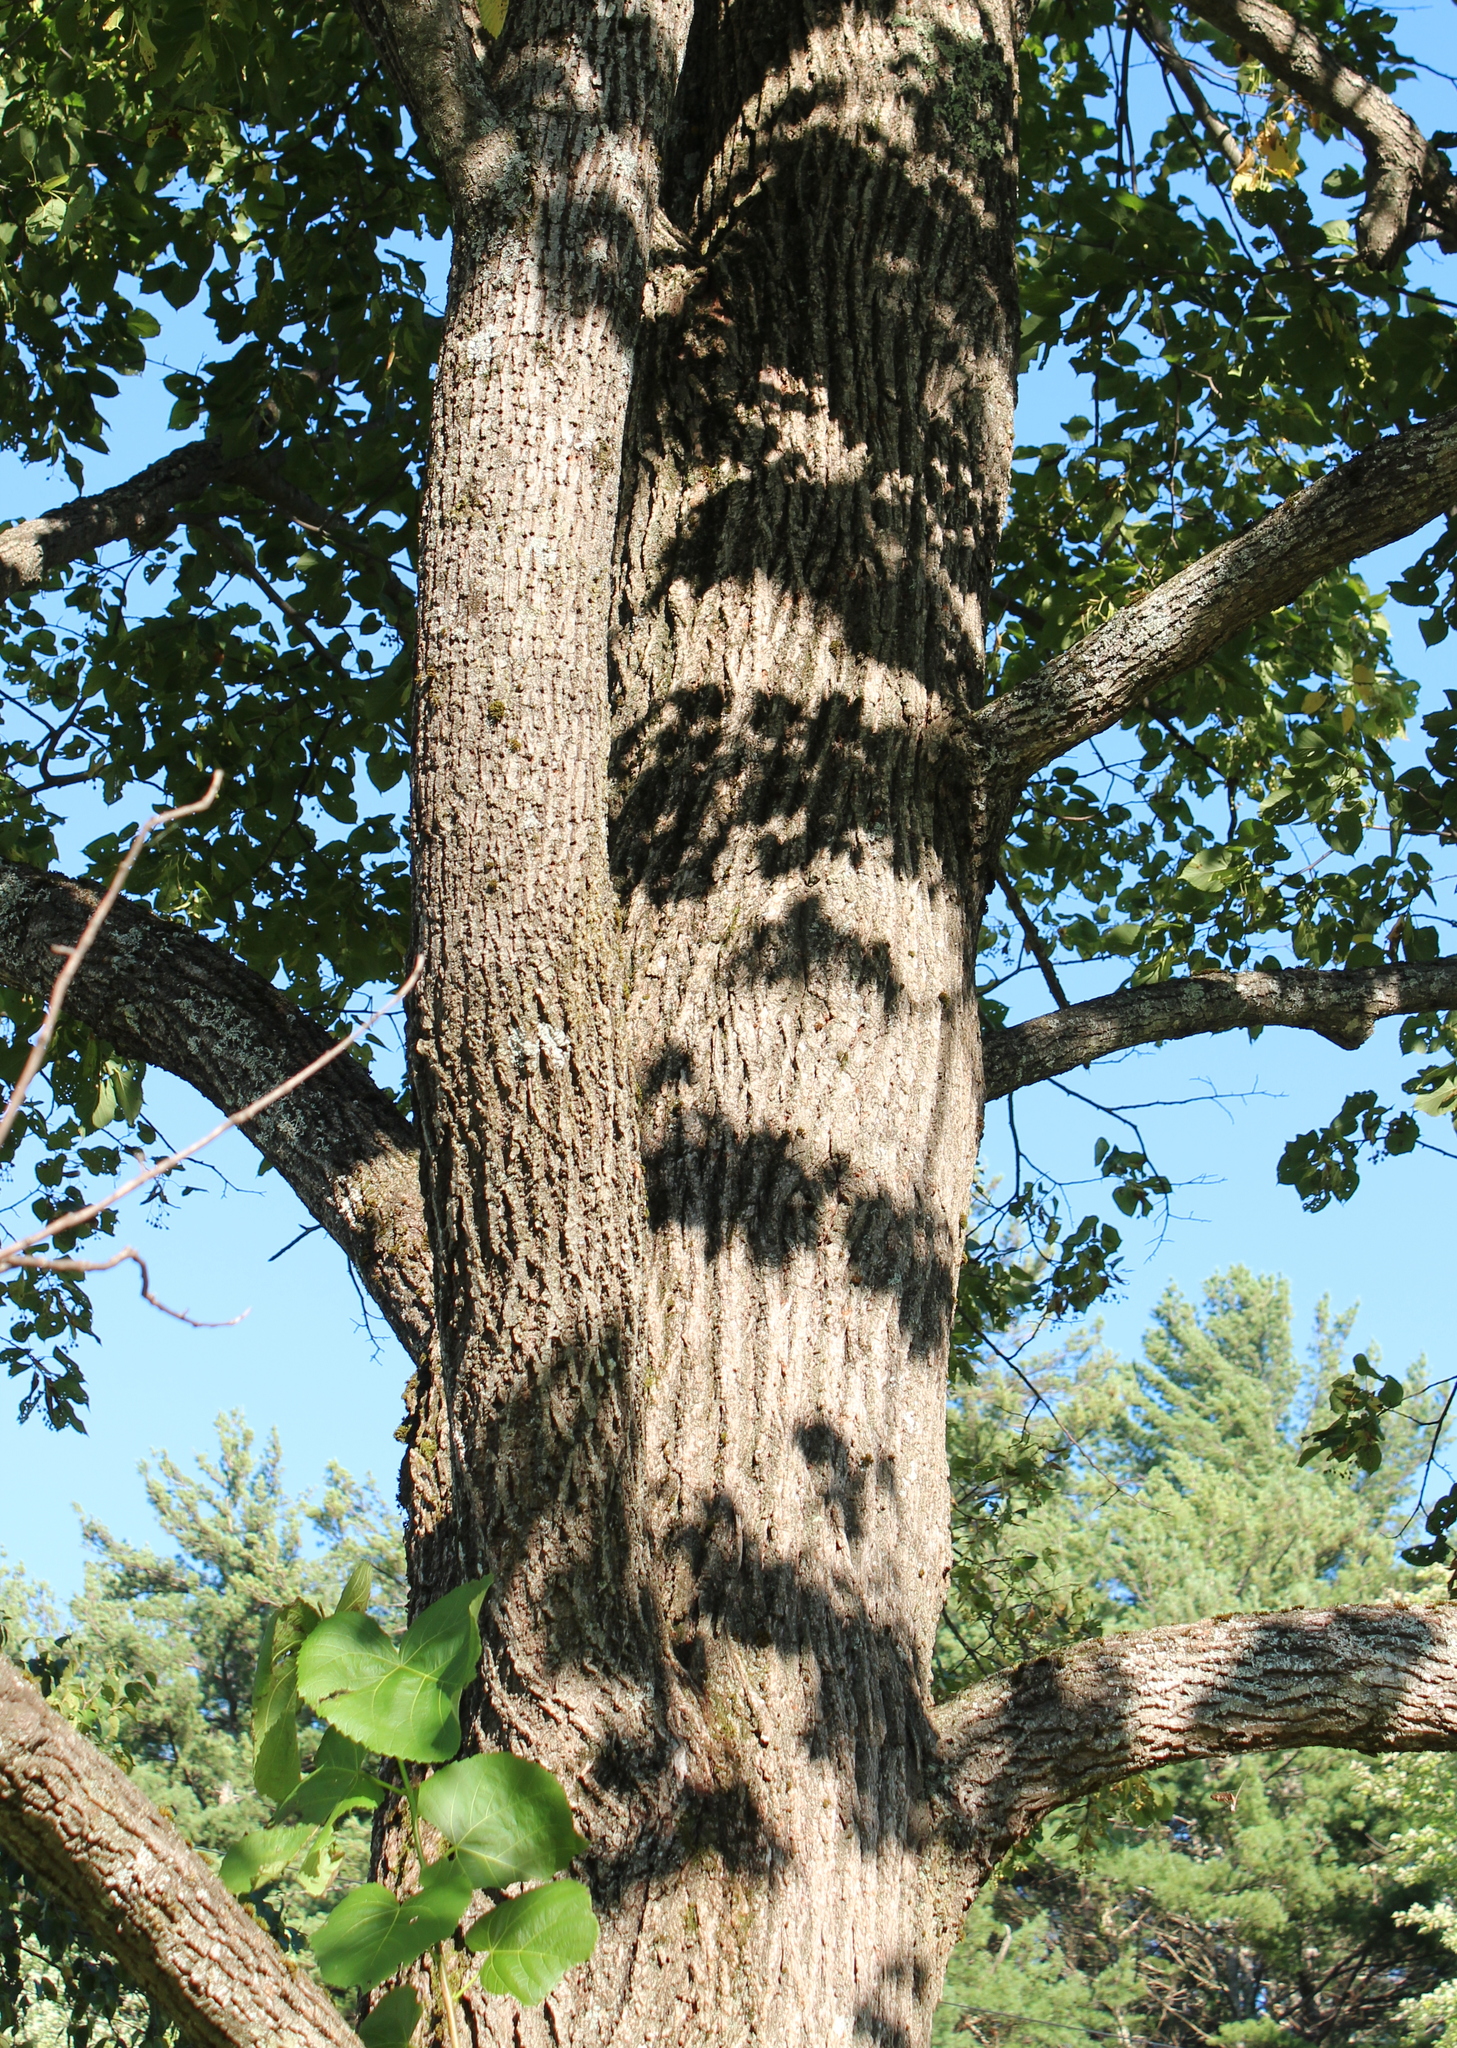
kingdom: Plantae
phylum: Tracheophyta
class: Magnoliopsida
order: Malvales
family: Malvaceae
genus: Tilia
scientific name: Tilia americana
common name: Basswood
